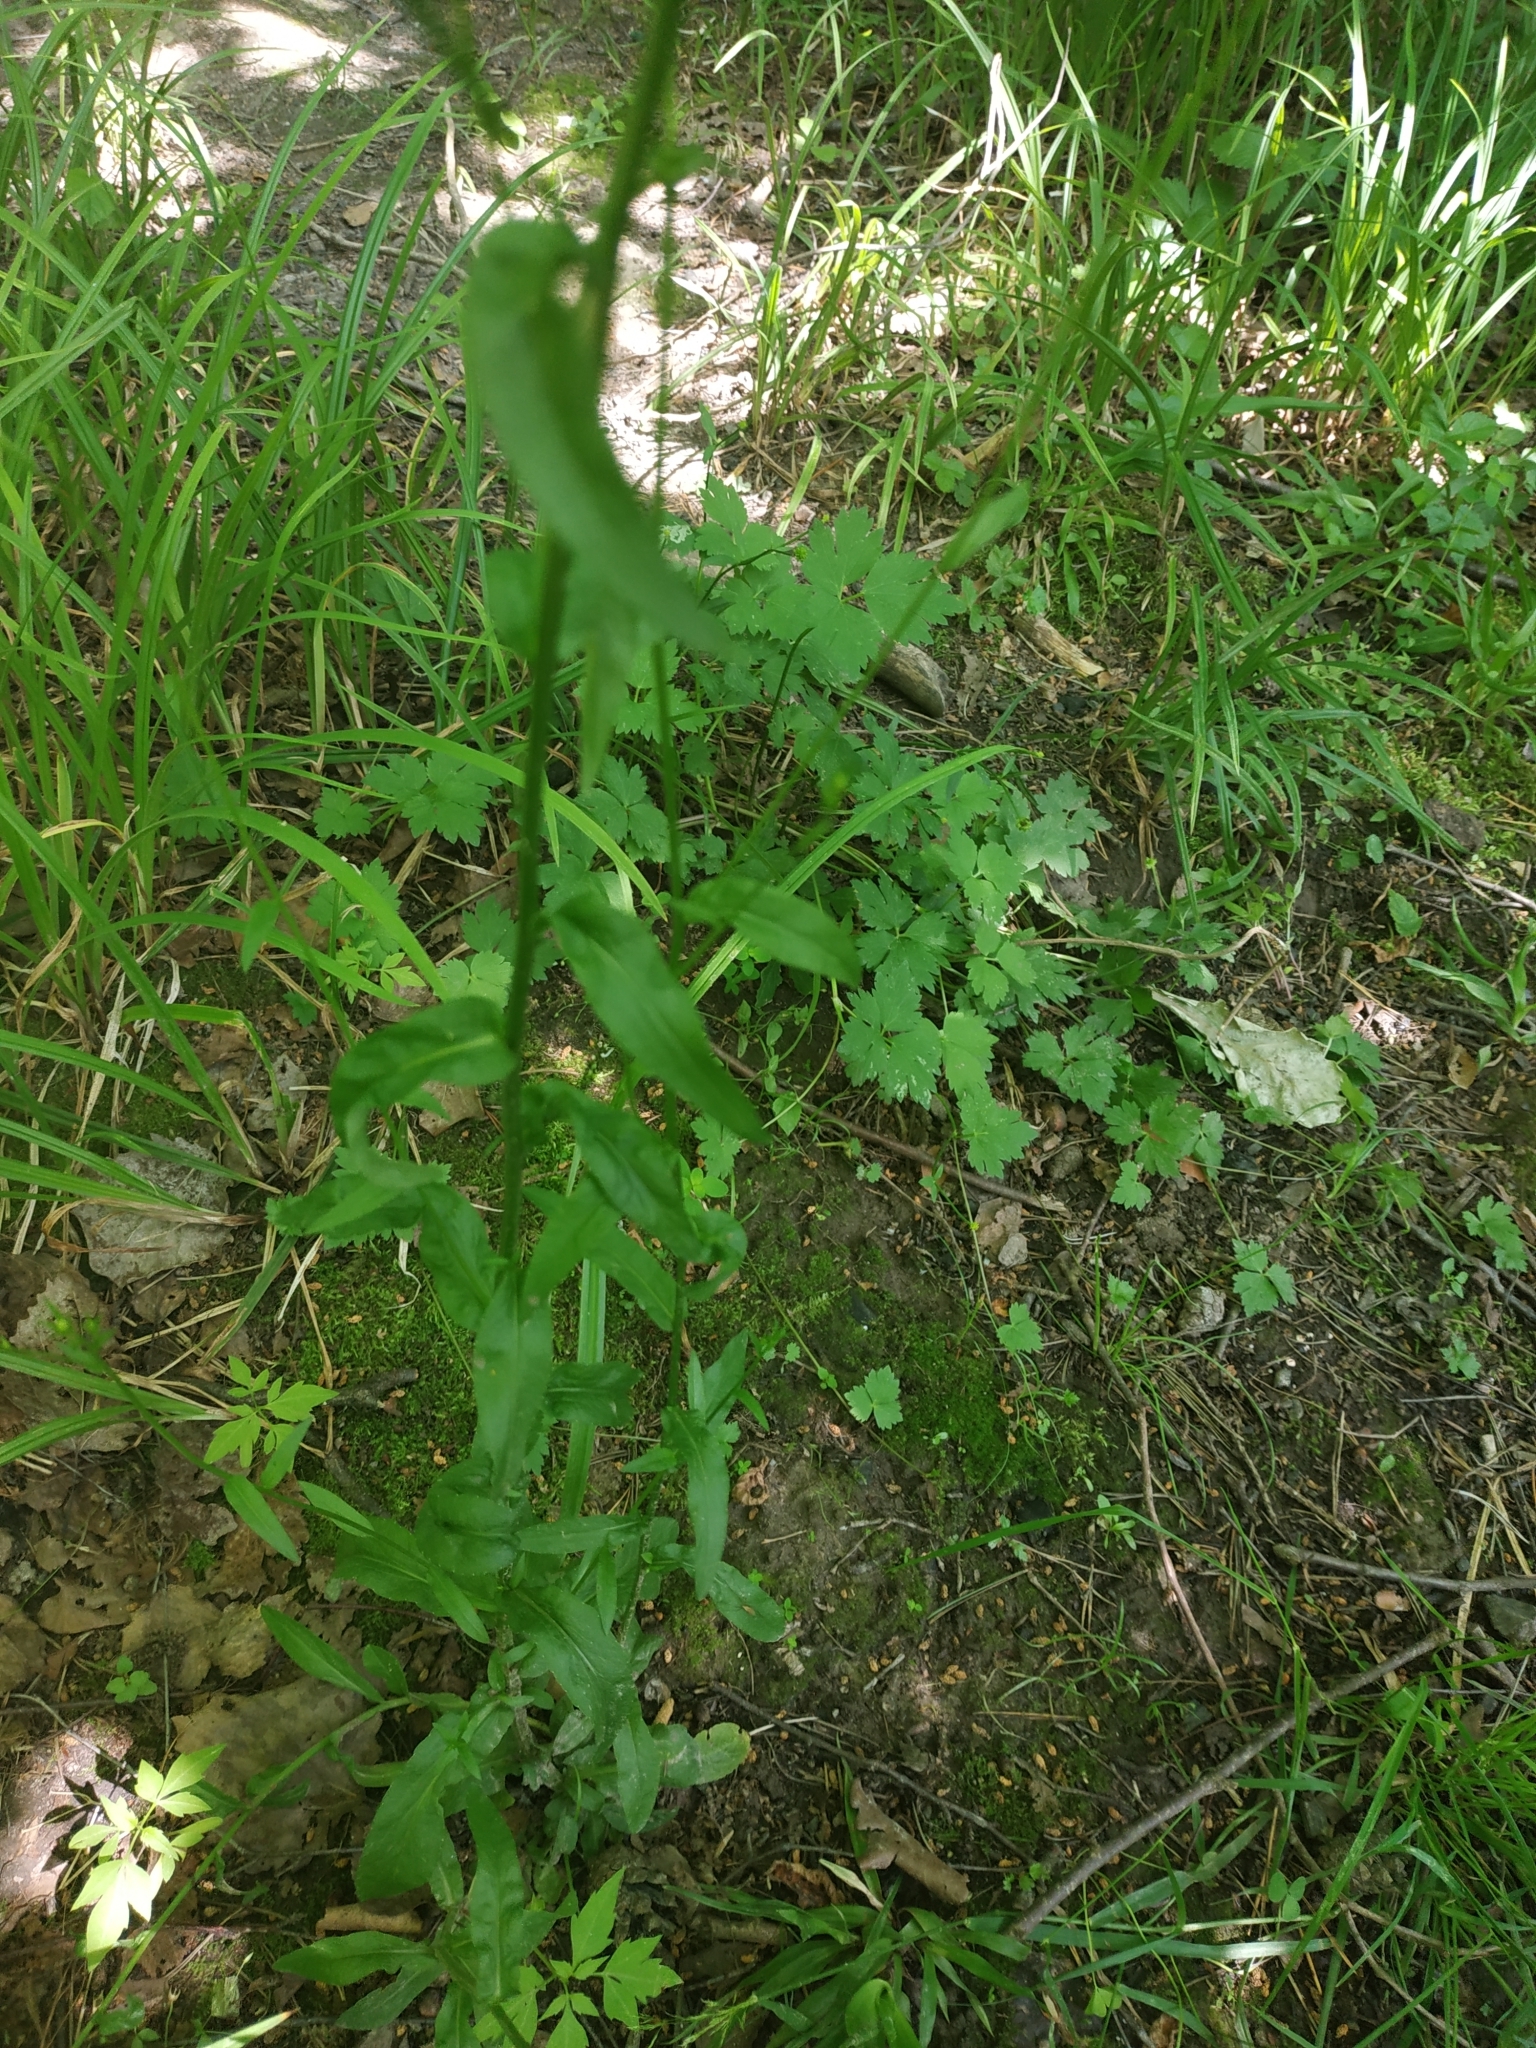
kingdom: Plantae
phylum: Tracheophyta
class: Magnoliopsida
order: Asterales
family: Campanulaceae
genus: Campanula
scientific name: Campanula patula
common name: Spreading bellflower
